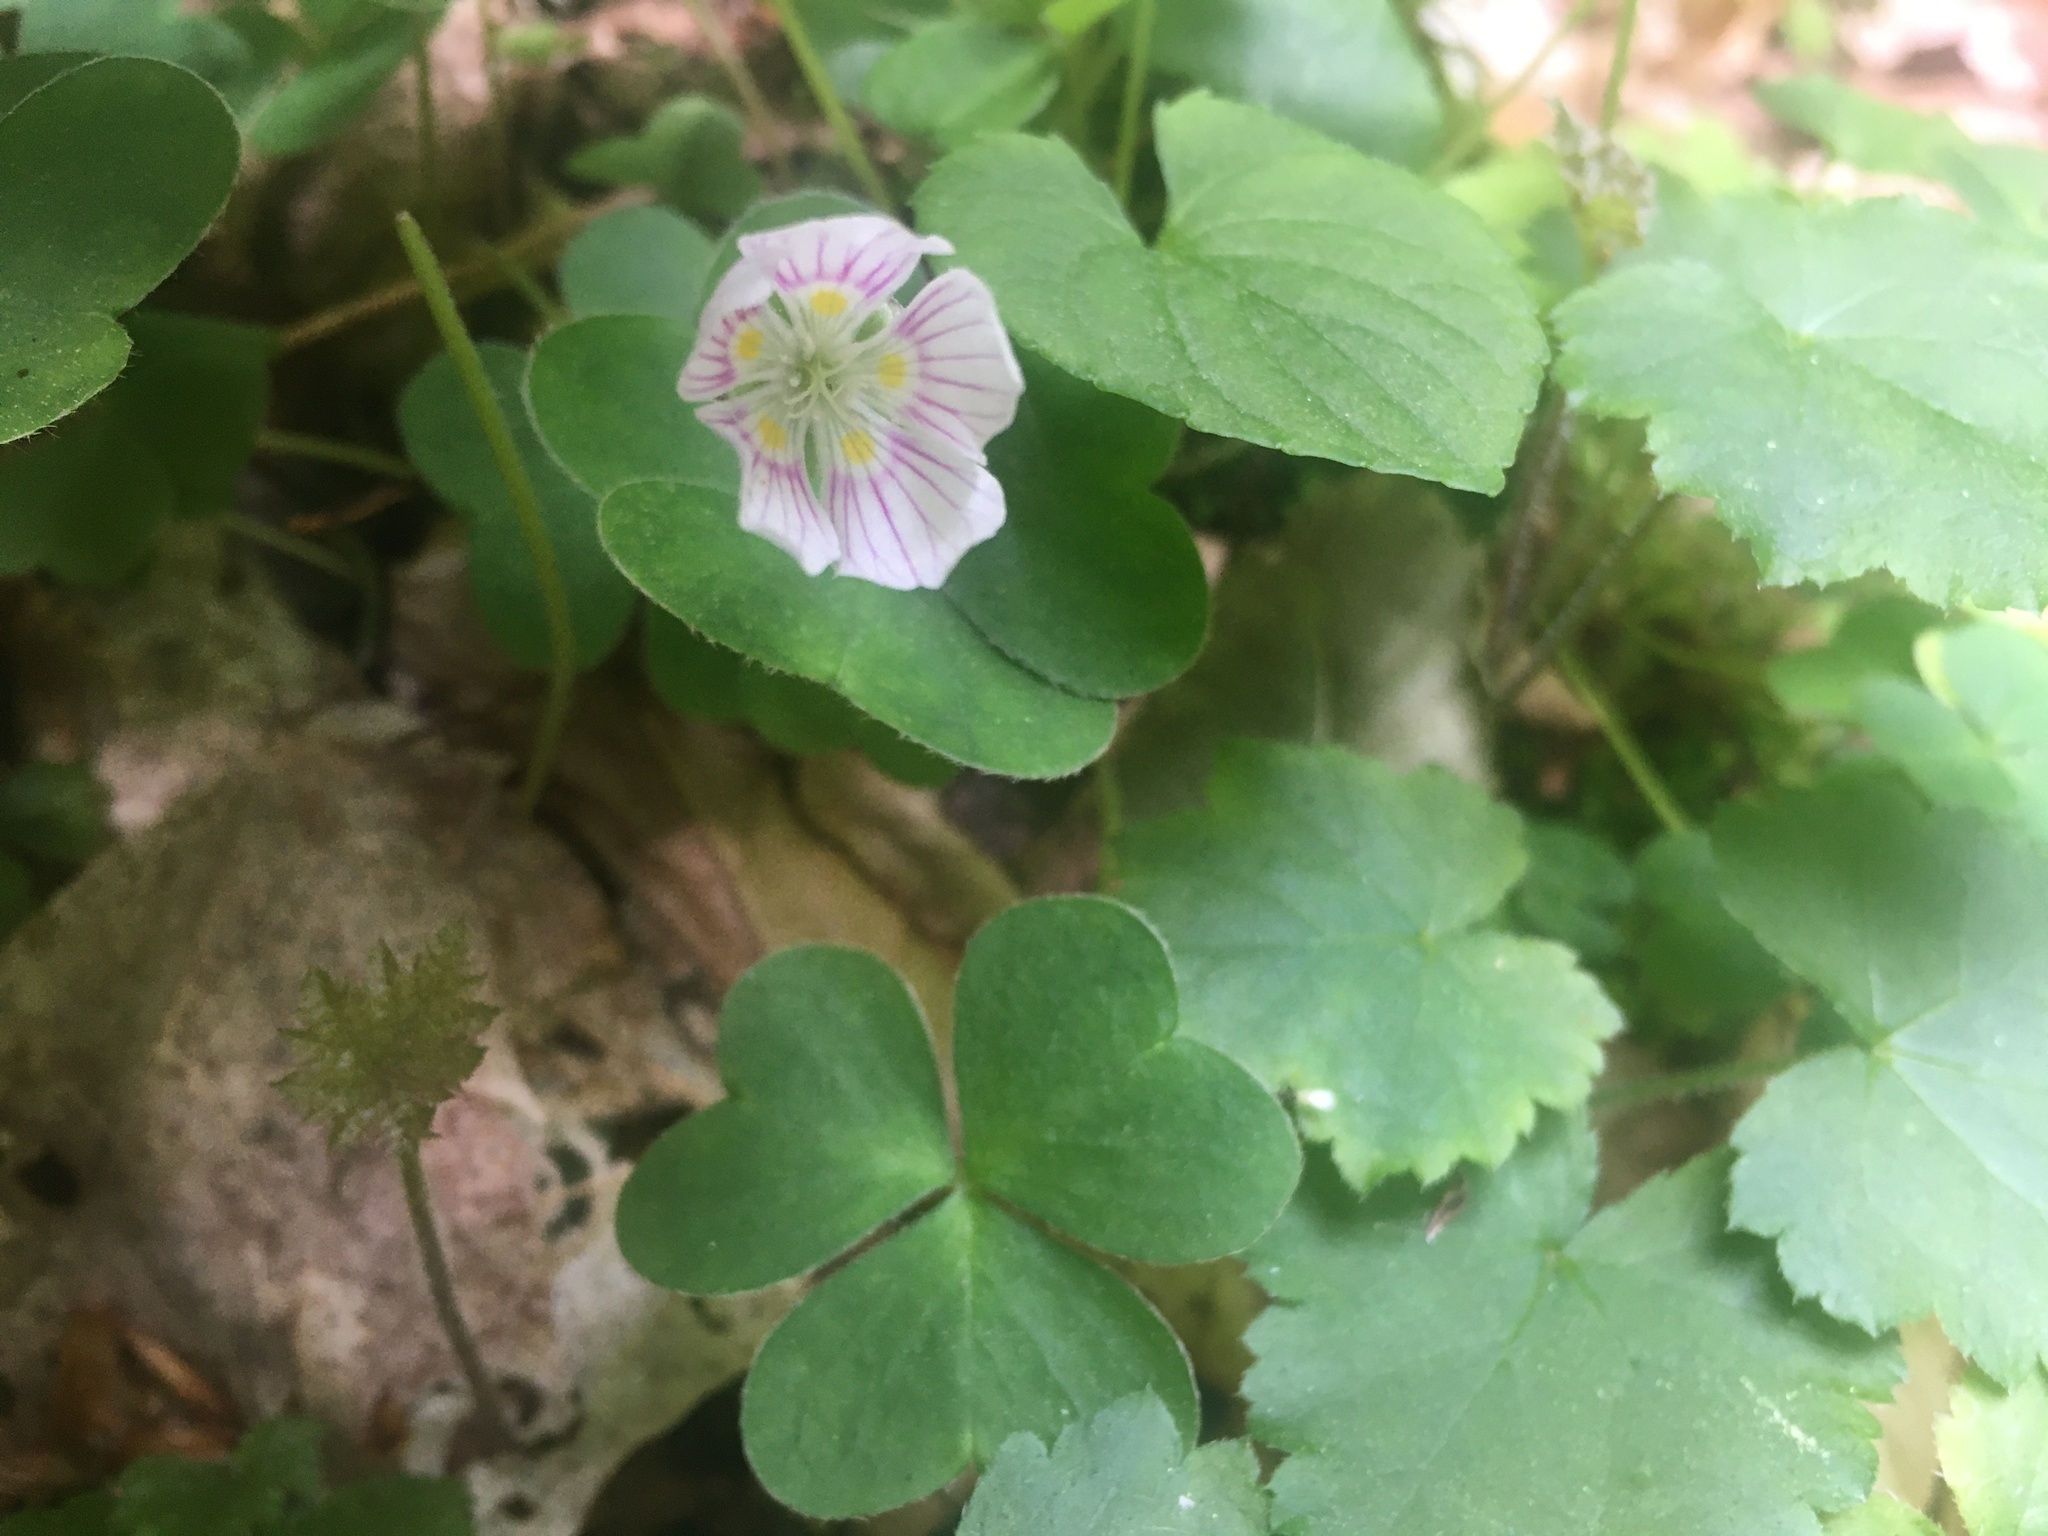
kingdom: Plantae
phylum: Tracheophyta
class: Magnoliopsida
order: Oxalidales
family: Oxalidaceae
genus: Oxalis
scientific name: Oxalis montana
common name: American wood-sorrel
